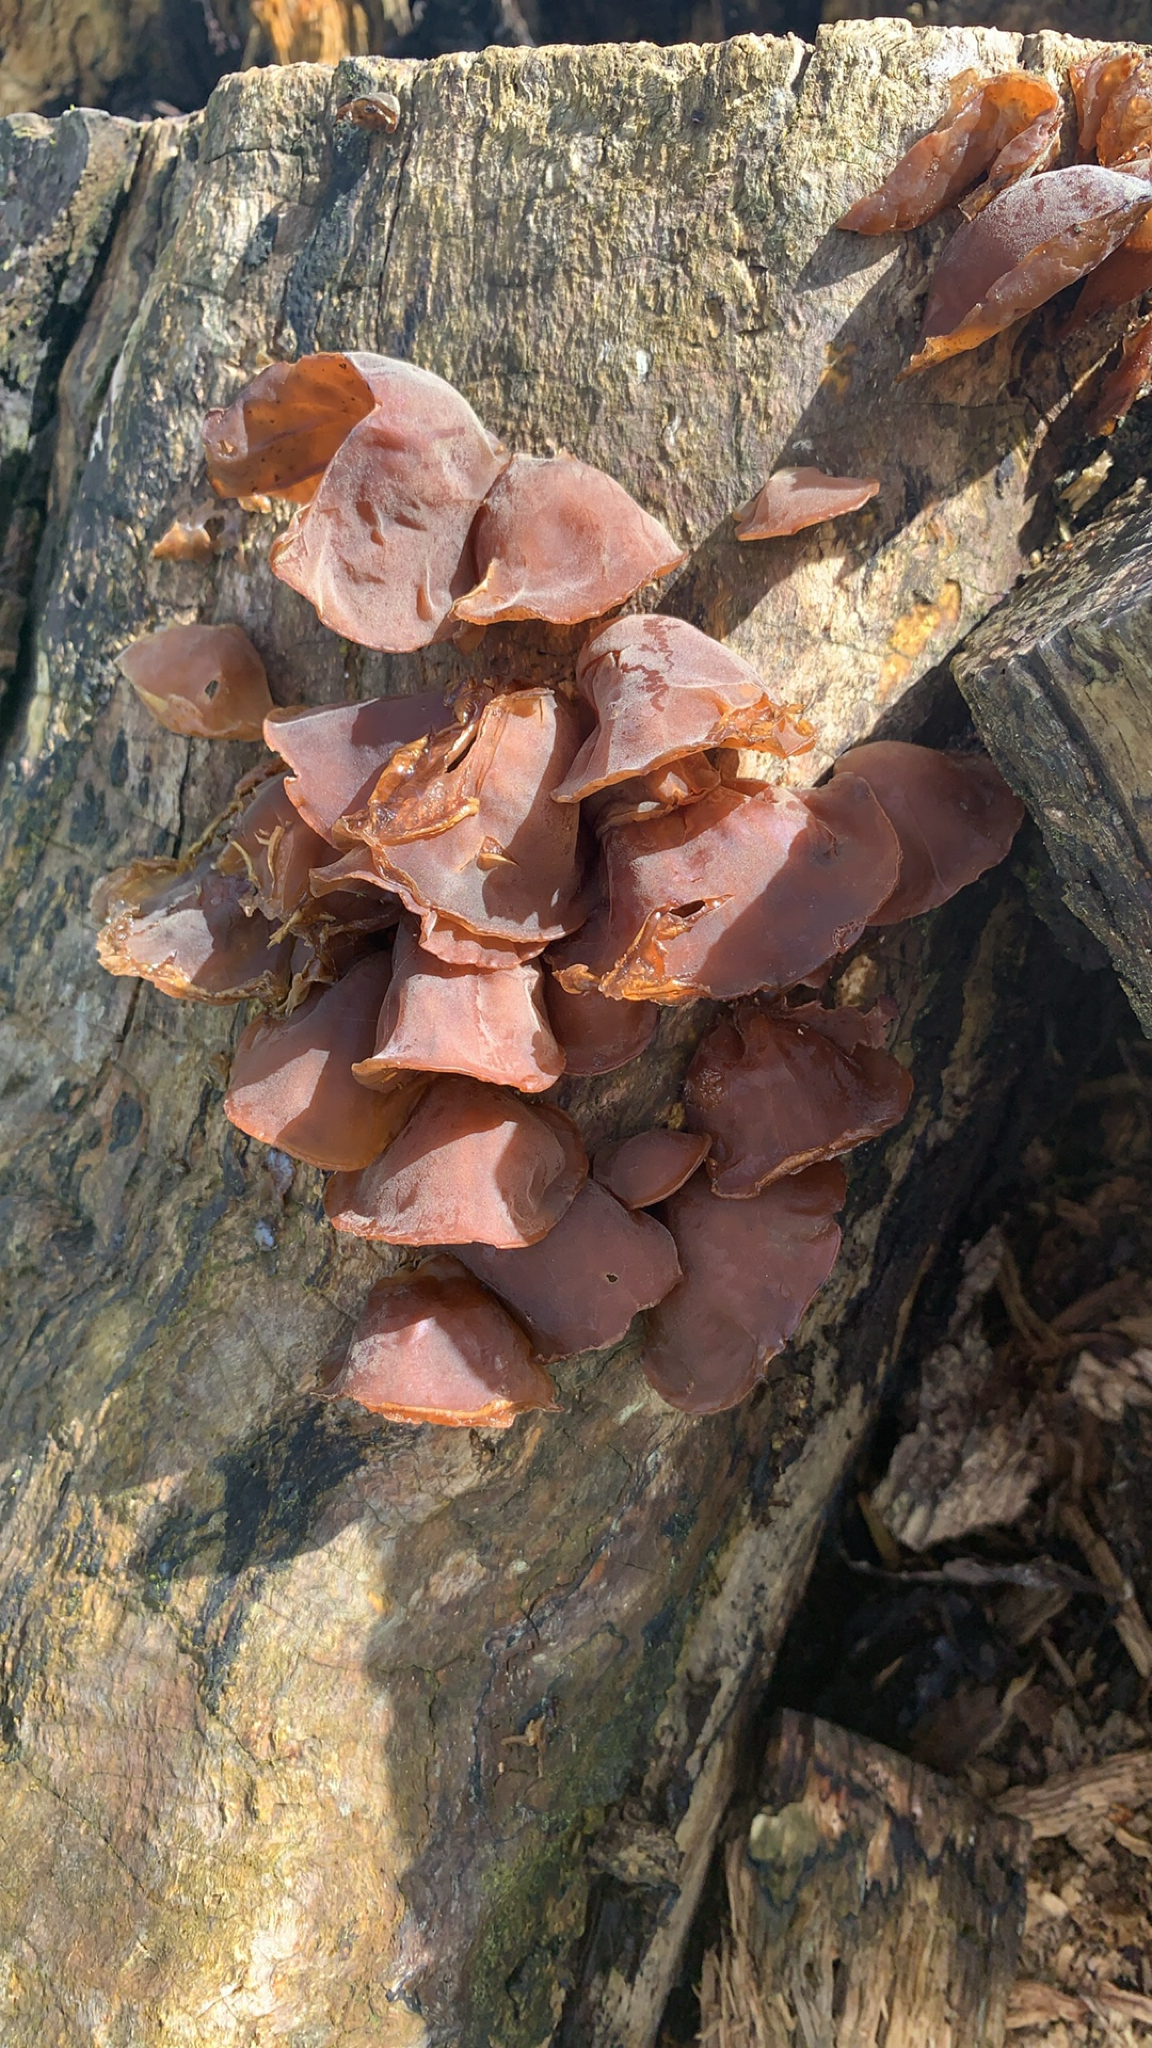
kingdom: Fungi
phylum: Basidiomycota
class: Agaricomycetes
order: Auriculariales
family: Auriculariaceae
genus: Auricularia
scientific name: Auricularia auricula-judae
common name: Jelly ear
